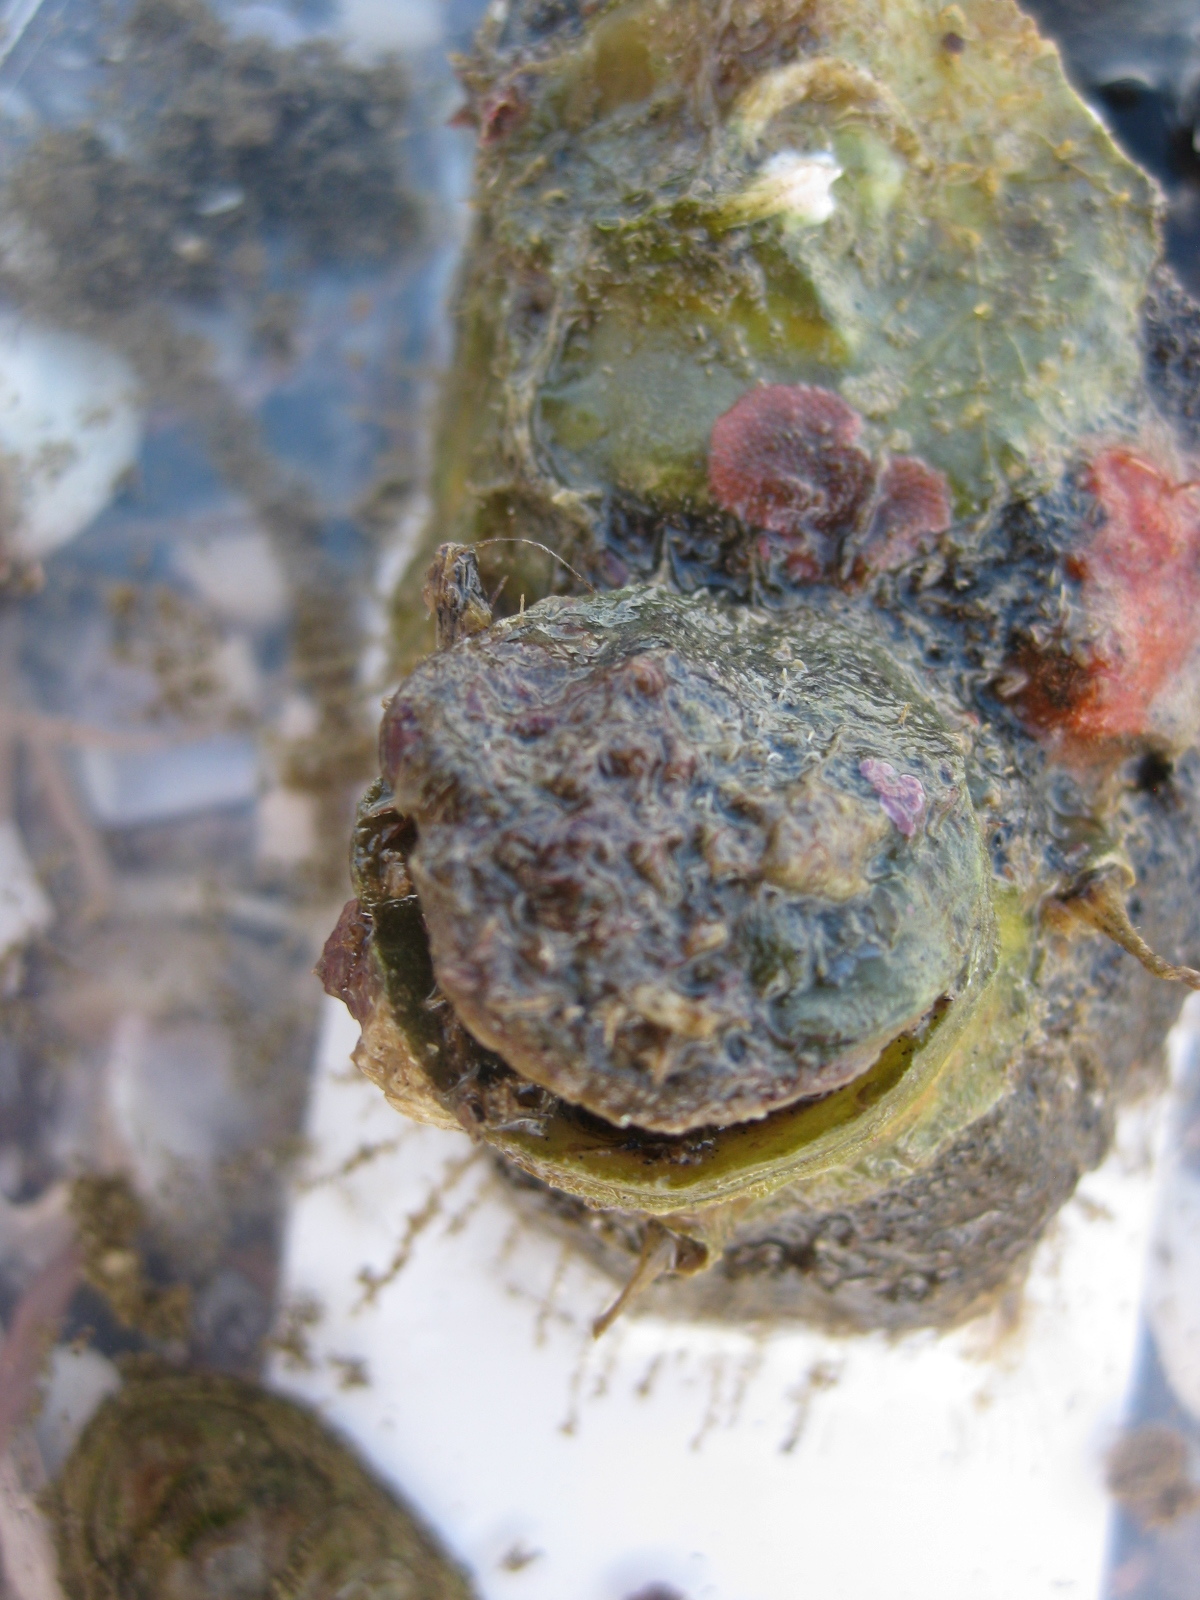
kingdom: Animalia
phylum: Mollusca
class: Bivalvia
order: Ostreida
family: Ostreidae
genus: Ostrea
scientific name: Ostrea chilensis
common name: Chilean oyster
